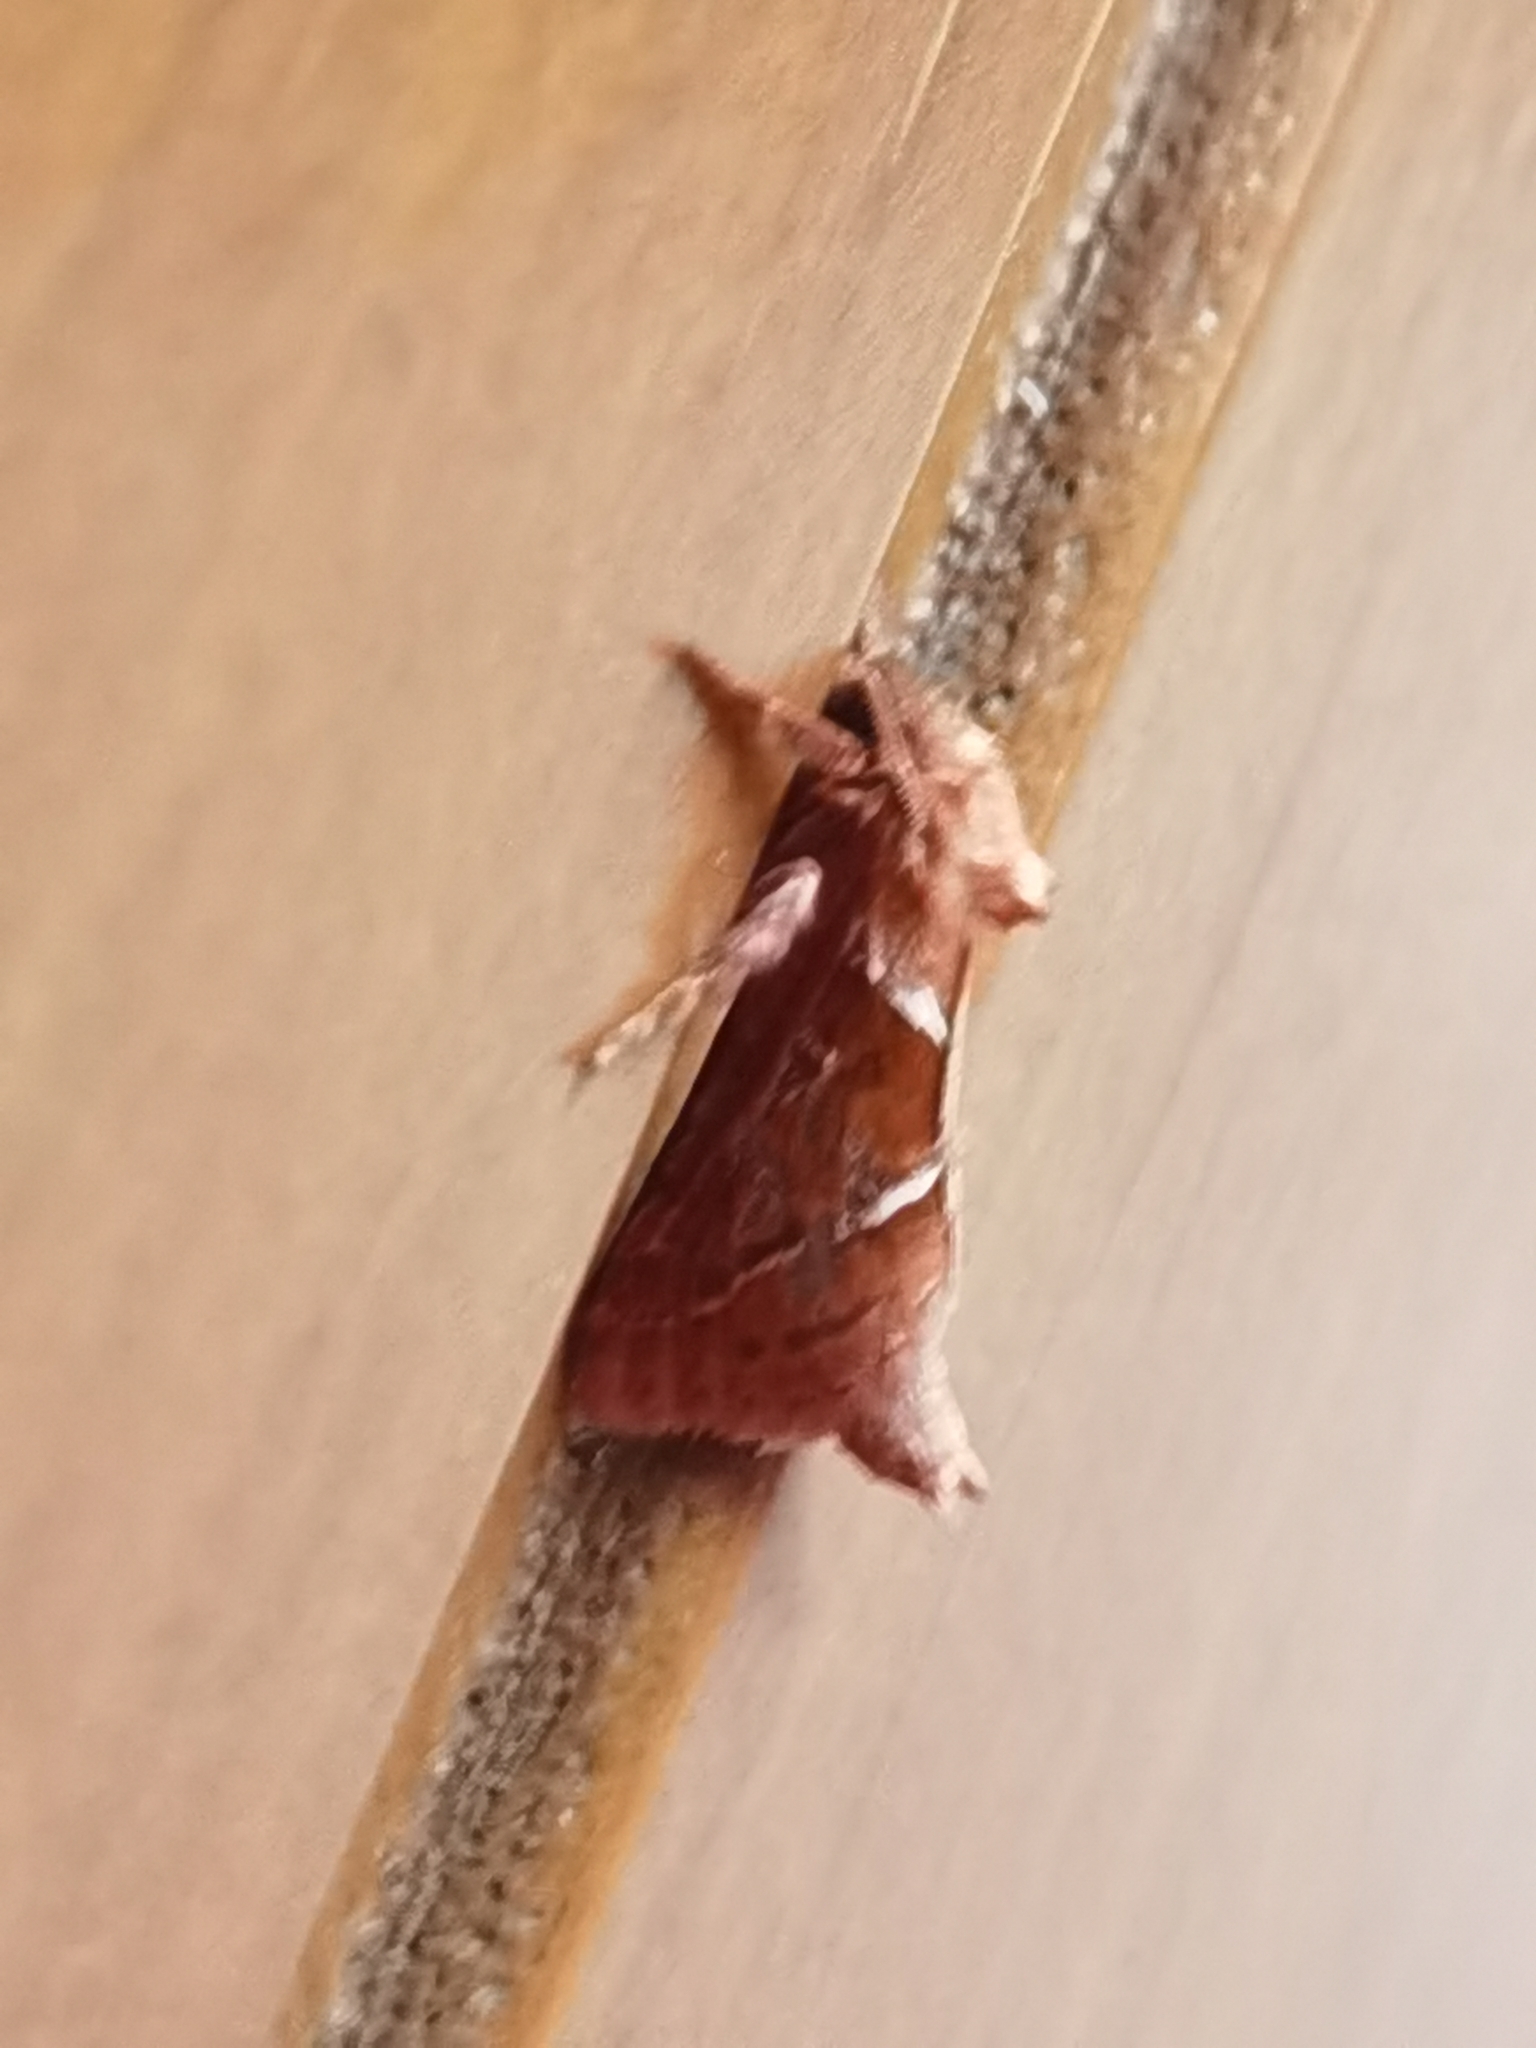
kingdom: Animalia
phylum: Arthropoda
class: Insecta
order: Lepidoptera
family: Hepialidae
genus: Triodia
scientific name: Triodia sylvina
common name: Orange swift
